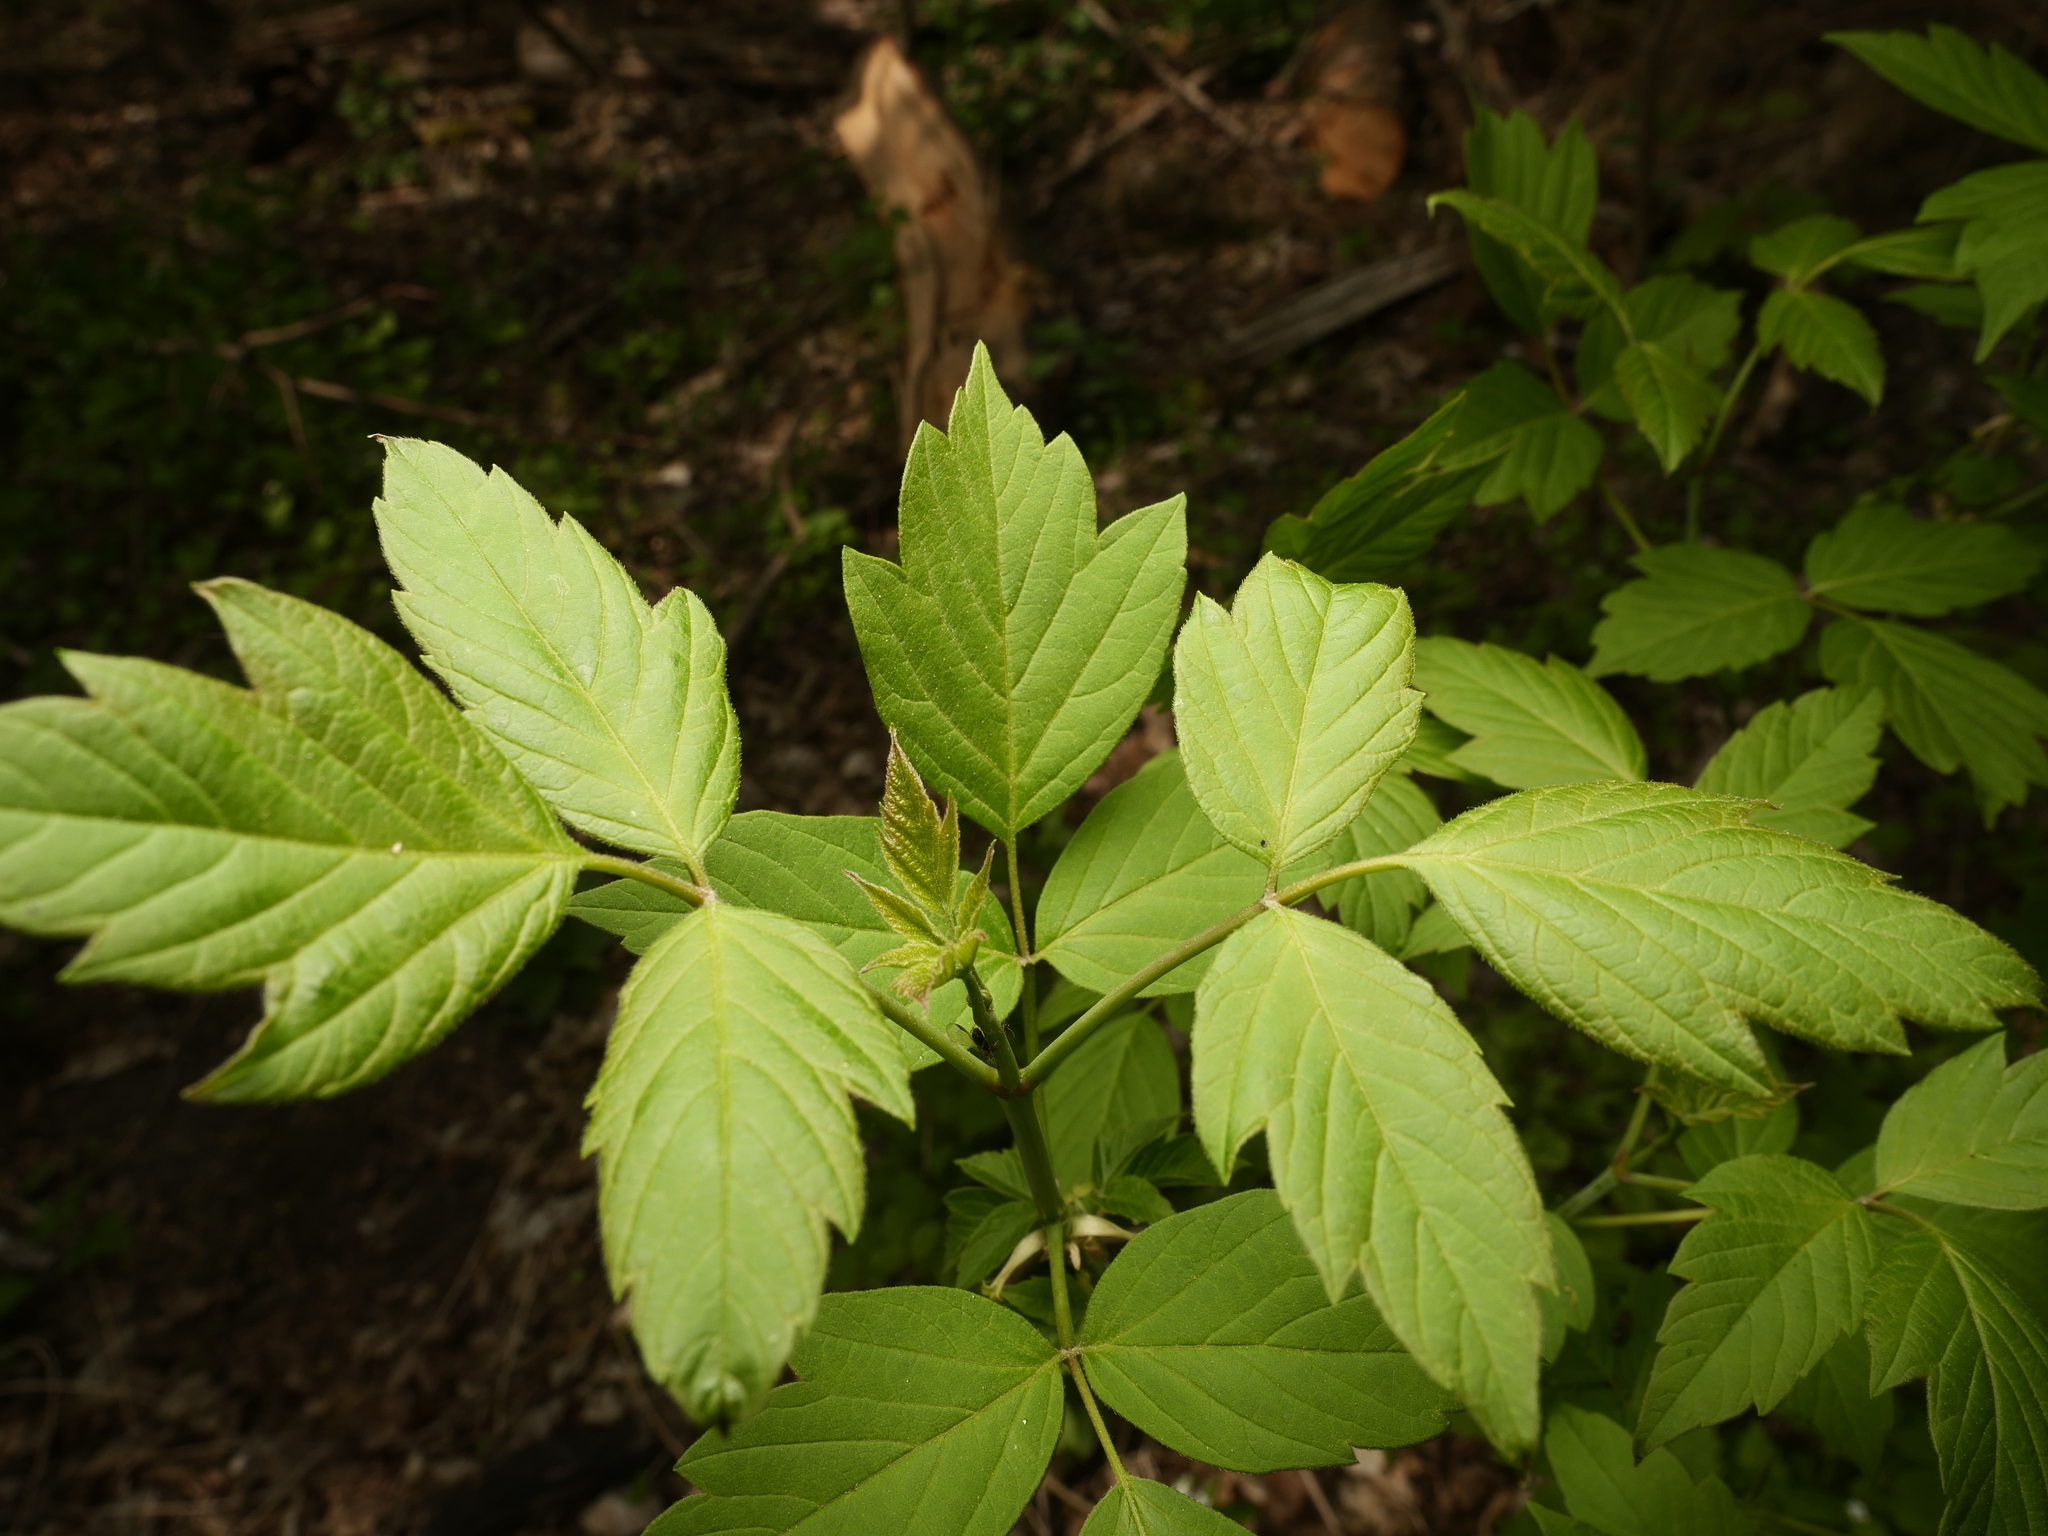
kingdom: Plantae
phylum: Tracheophyta
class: Magnoliopsida
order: Sapindales
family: Sapindaceae
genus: Acer
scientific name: Acer negundo
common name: Ashleaf maple
